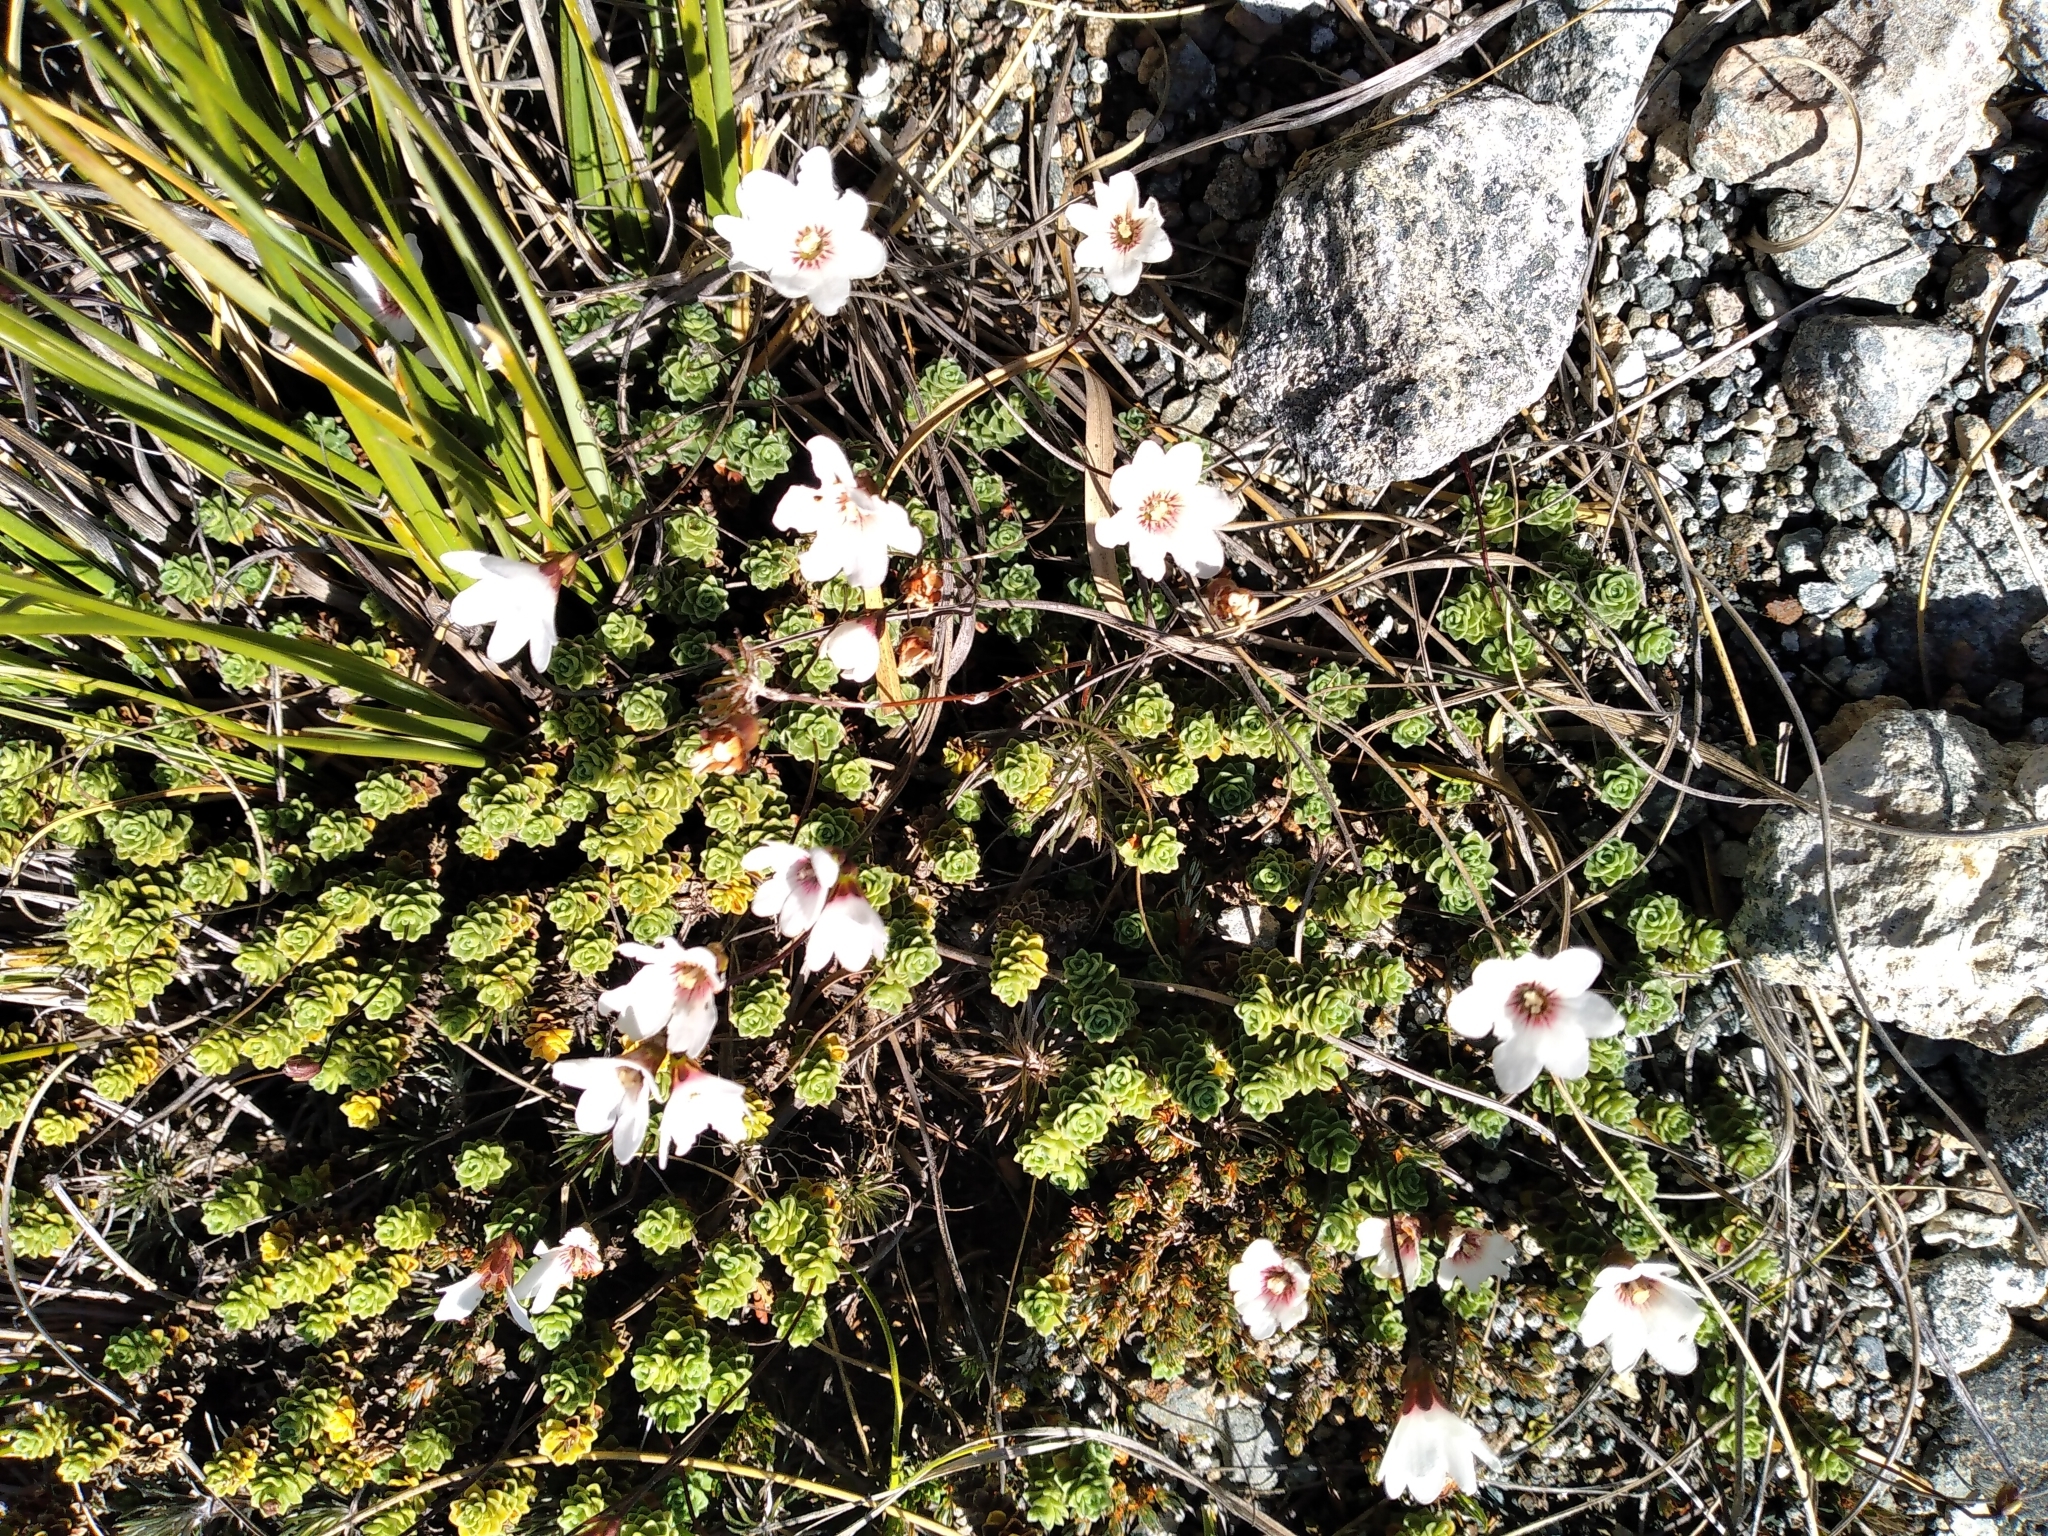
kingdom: Plantae
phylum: Tracheophyta
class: Magnoliopsida
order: Asterales
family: Stylidiaceae
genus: Forstera
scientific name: Forstera sedifolia
